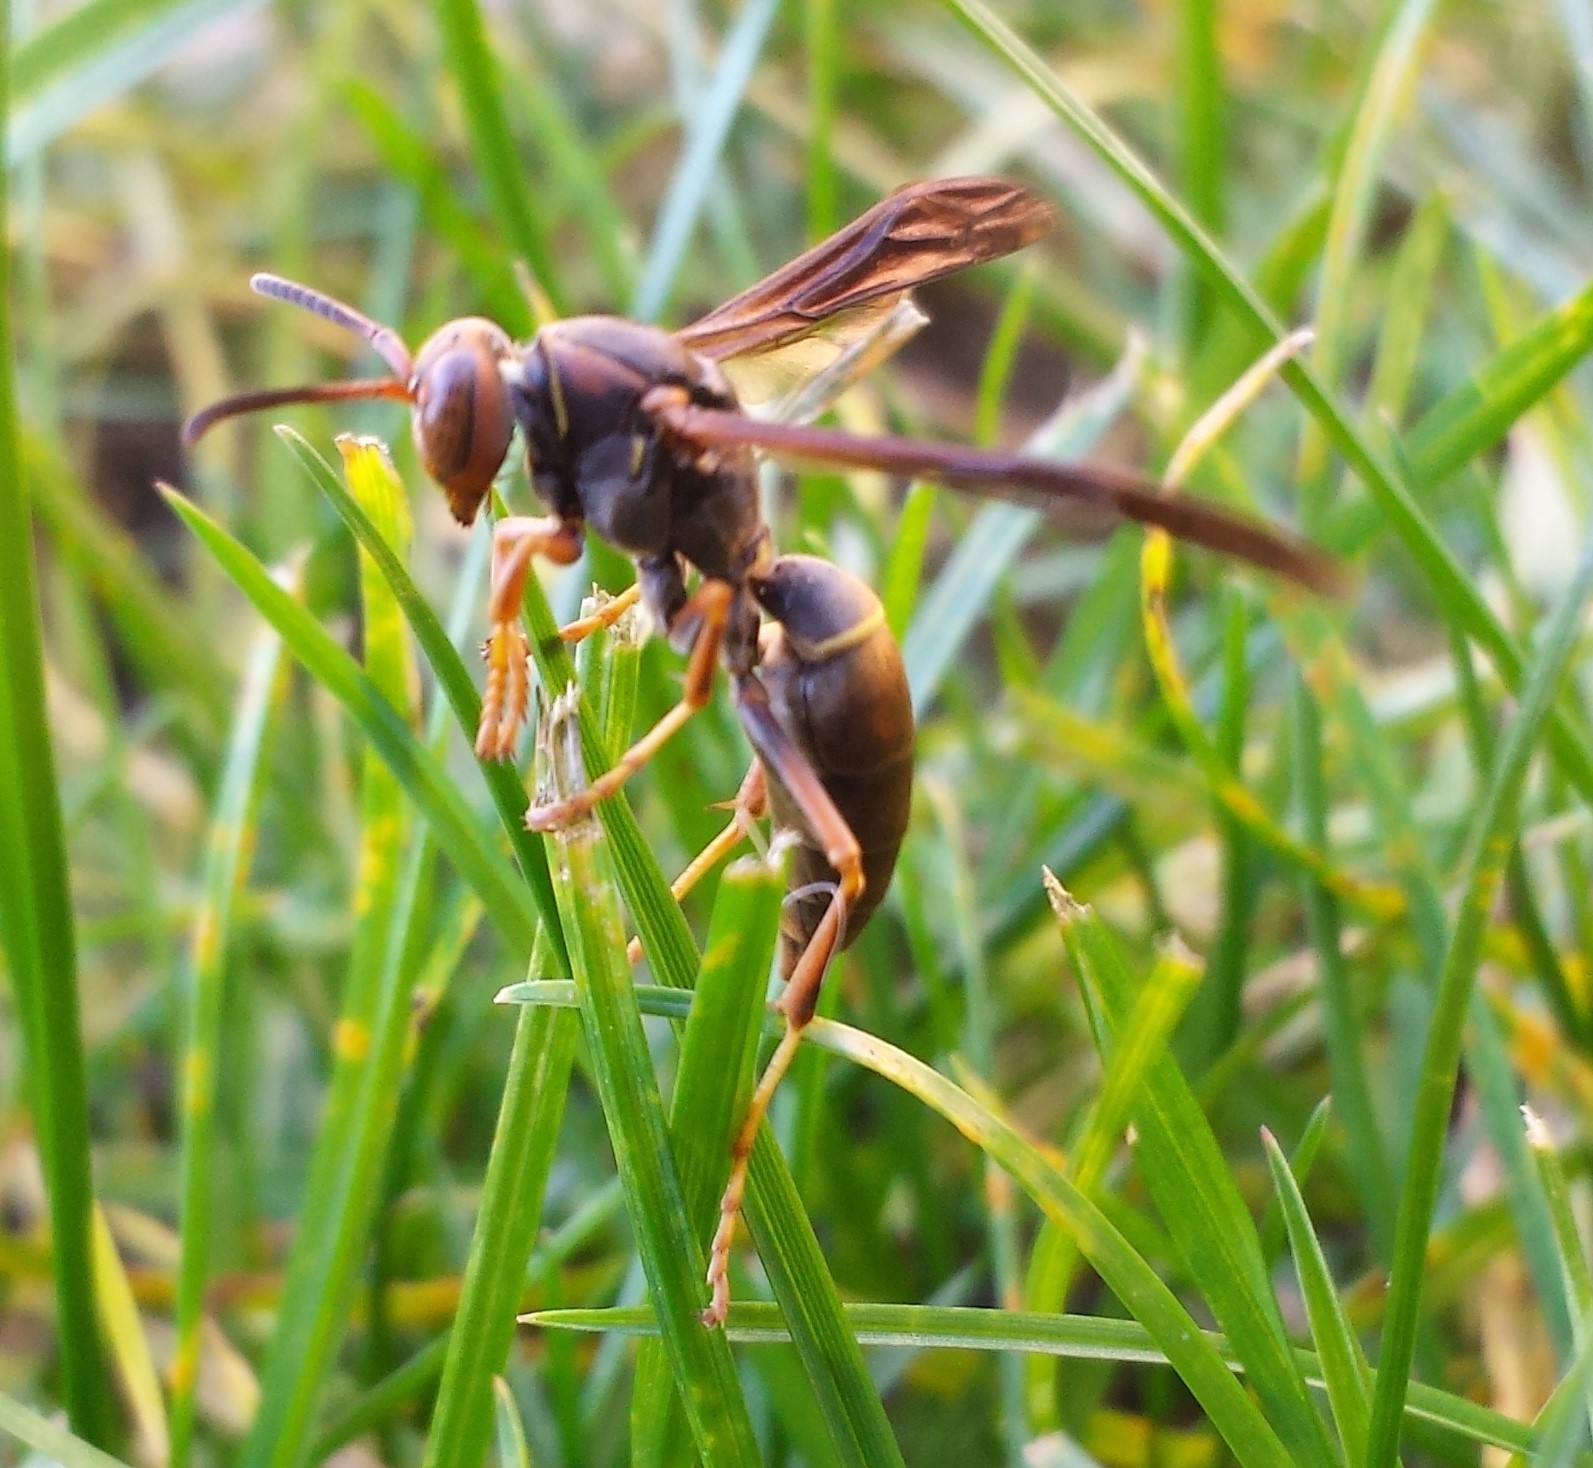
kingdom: Animalia
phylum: Arthropoda
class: Insecta
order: Hymenoptera
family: Eumenidae
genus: Polistes
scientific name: Polistes fuscatus
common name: Dark paper wasp
